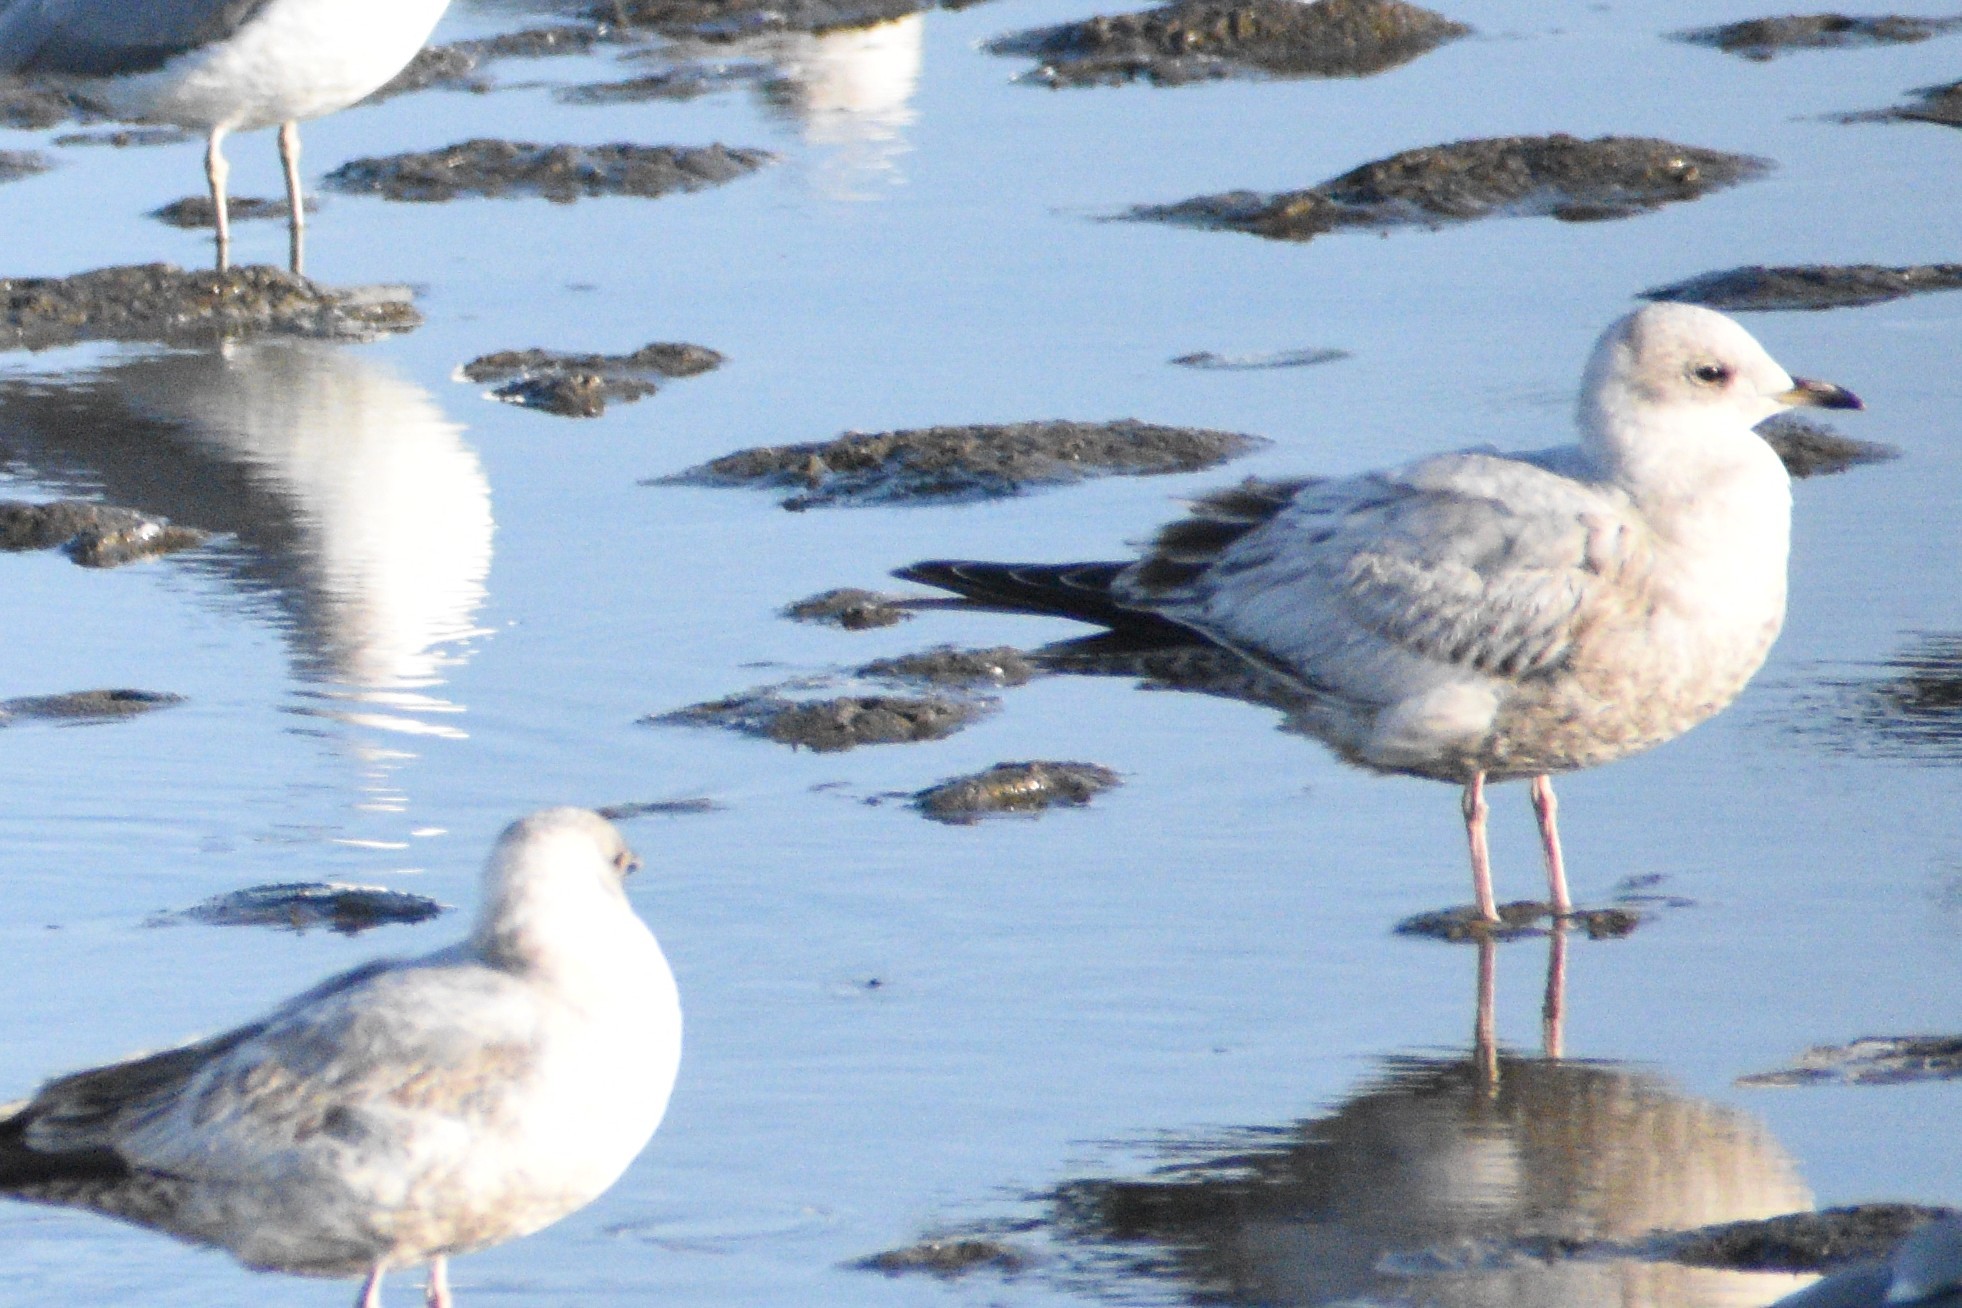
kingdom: Animalia
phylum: Chordata
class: Aves
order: Charadriiformes
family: Laridae
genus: Larus
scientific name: Larus brachyrhynchus
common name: Short-billed gull
